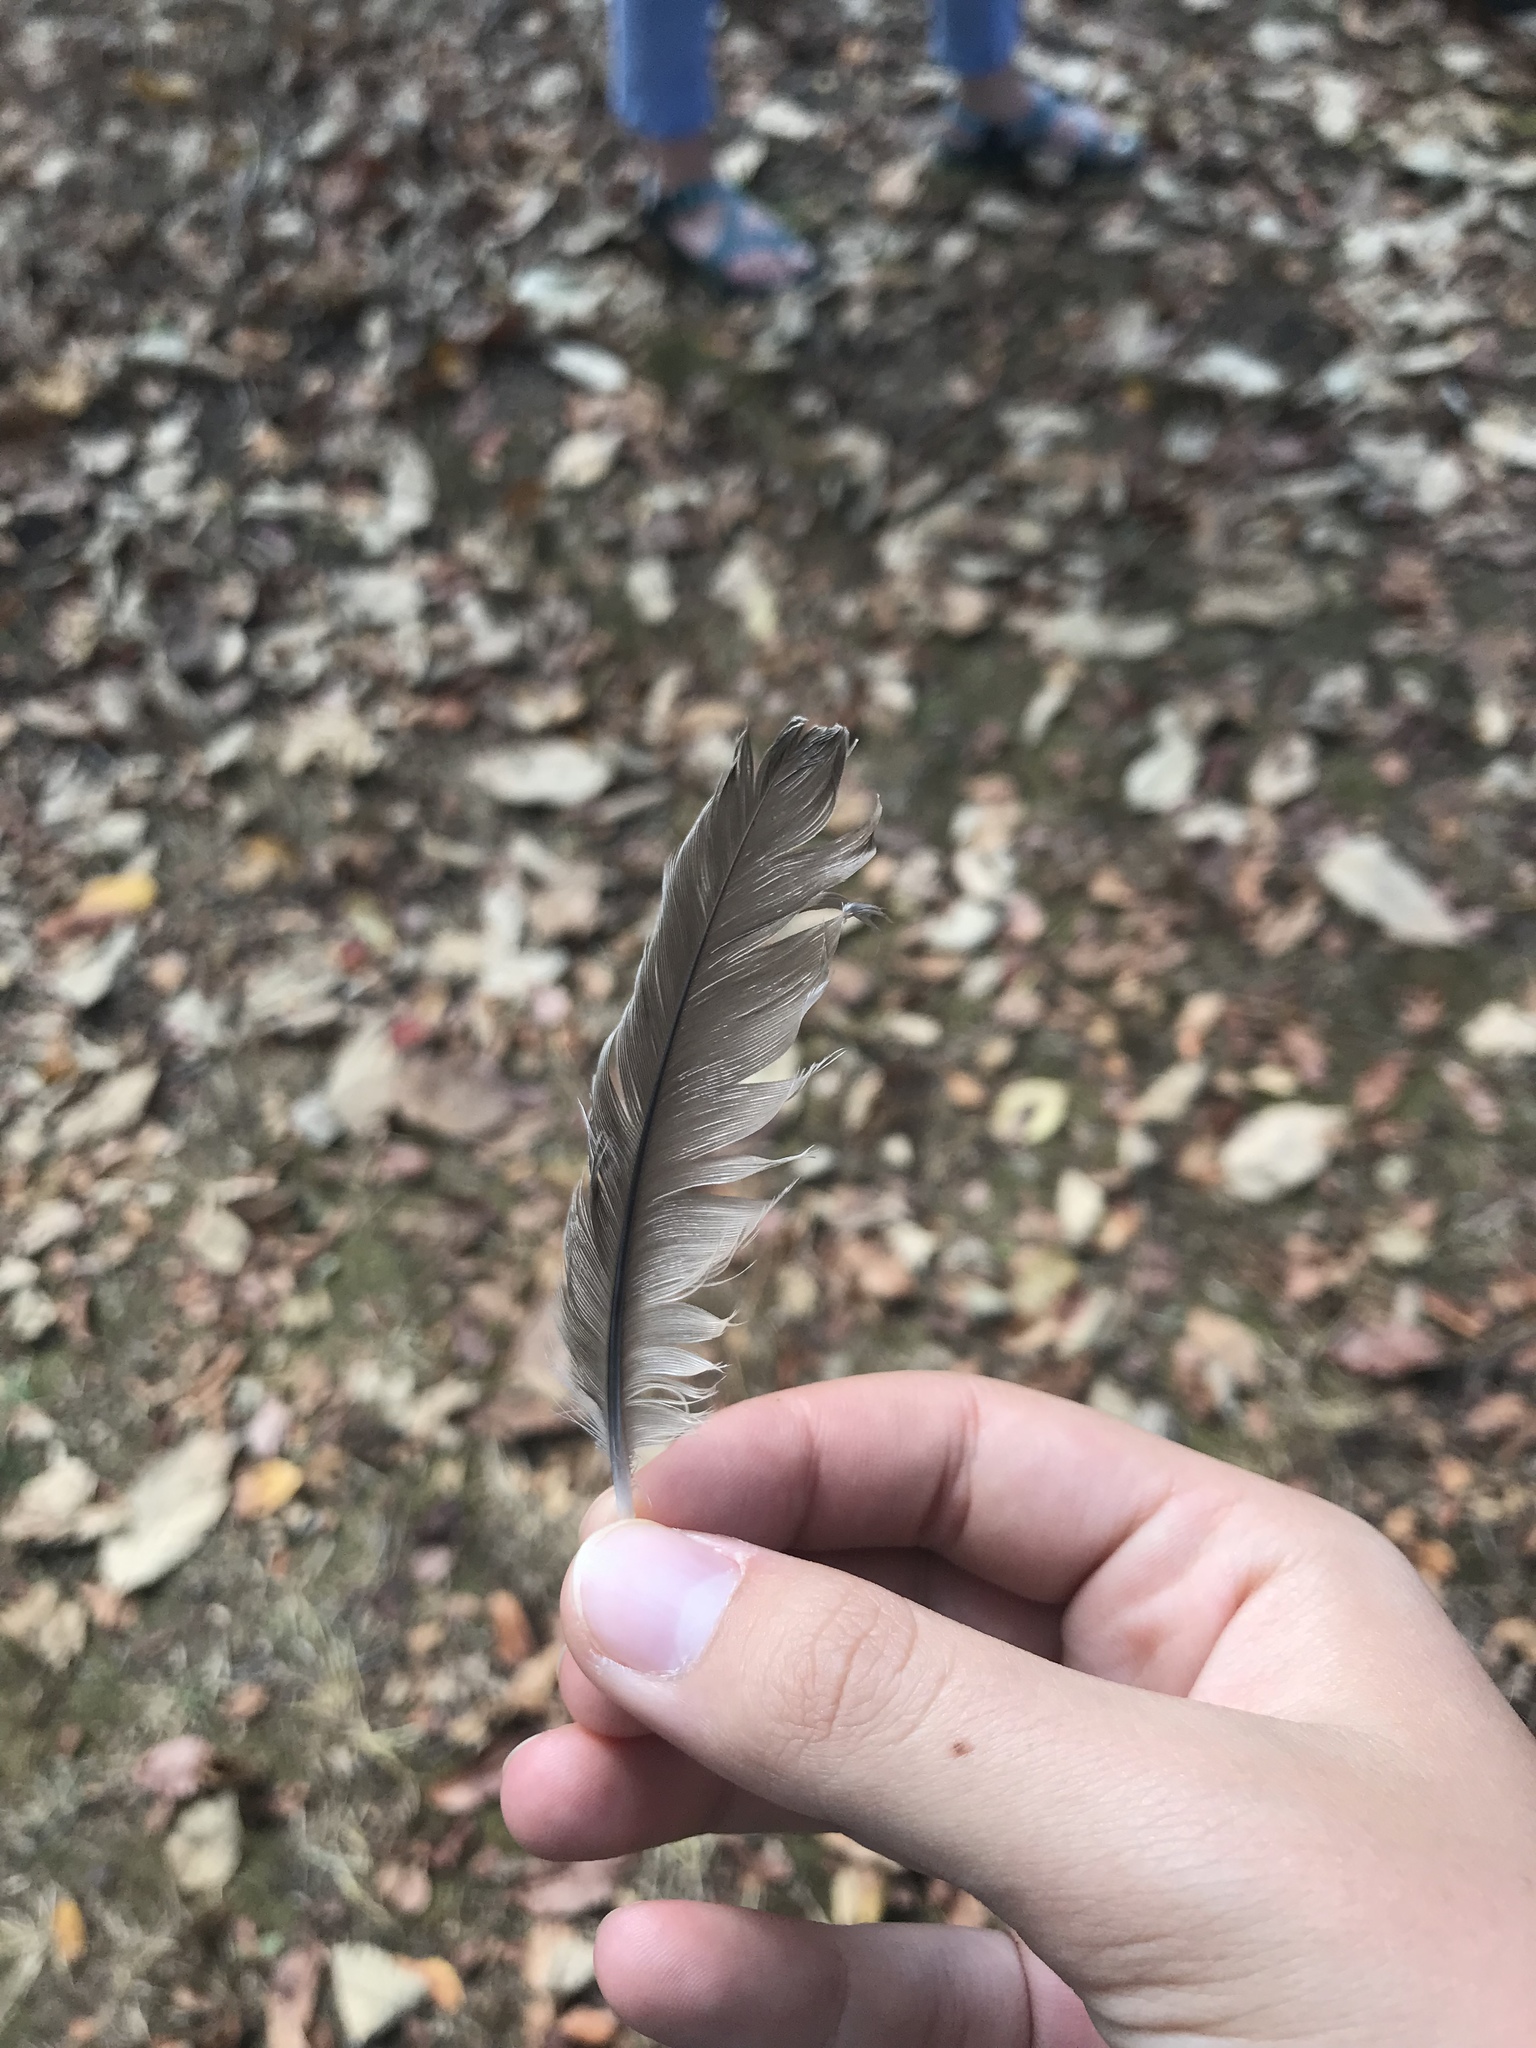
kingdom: Animalia
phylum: Chordata
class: Aves
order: Passeriformes
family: Turdidae
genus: Turdus
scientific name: Turdus migratorius
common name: American robin
